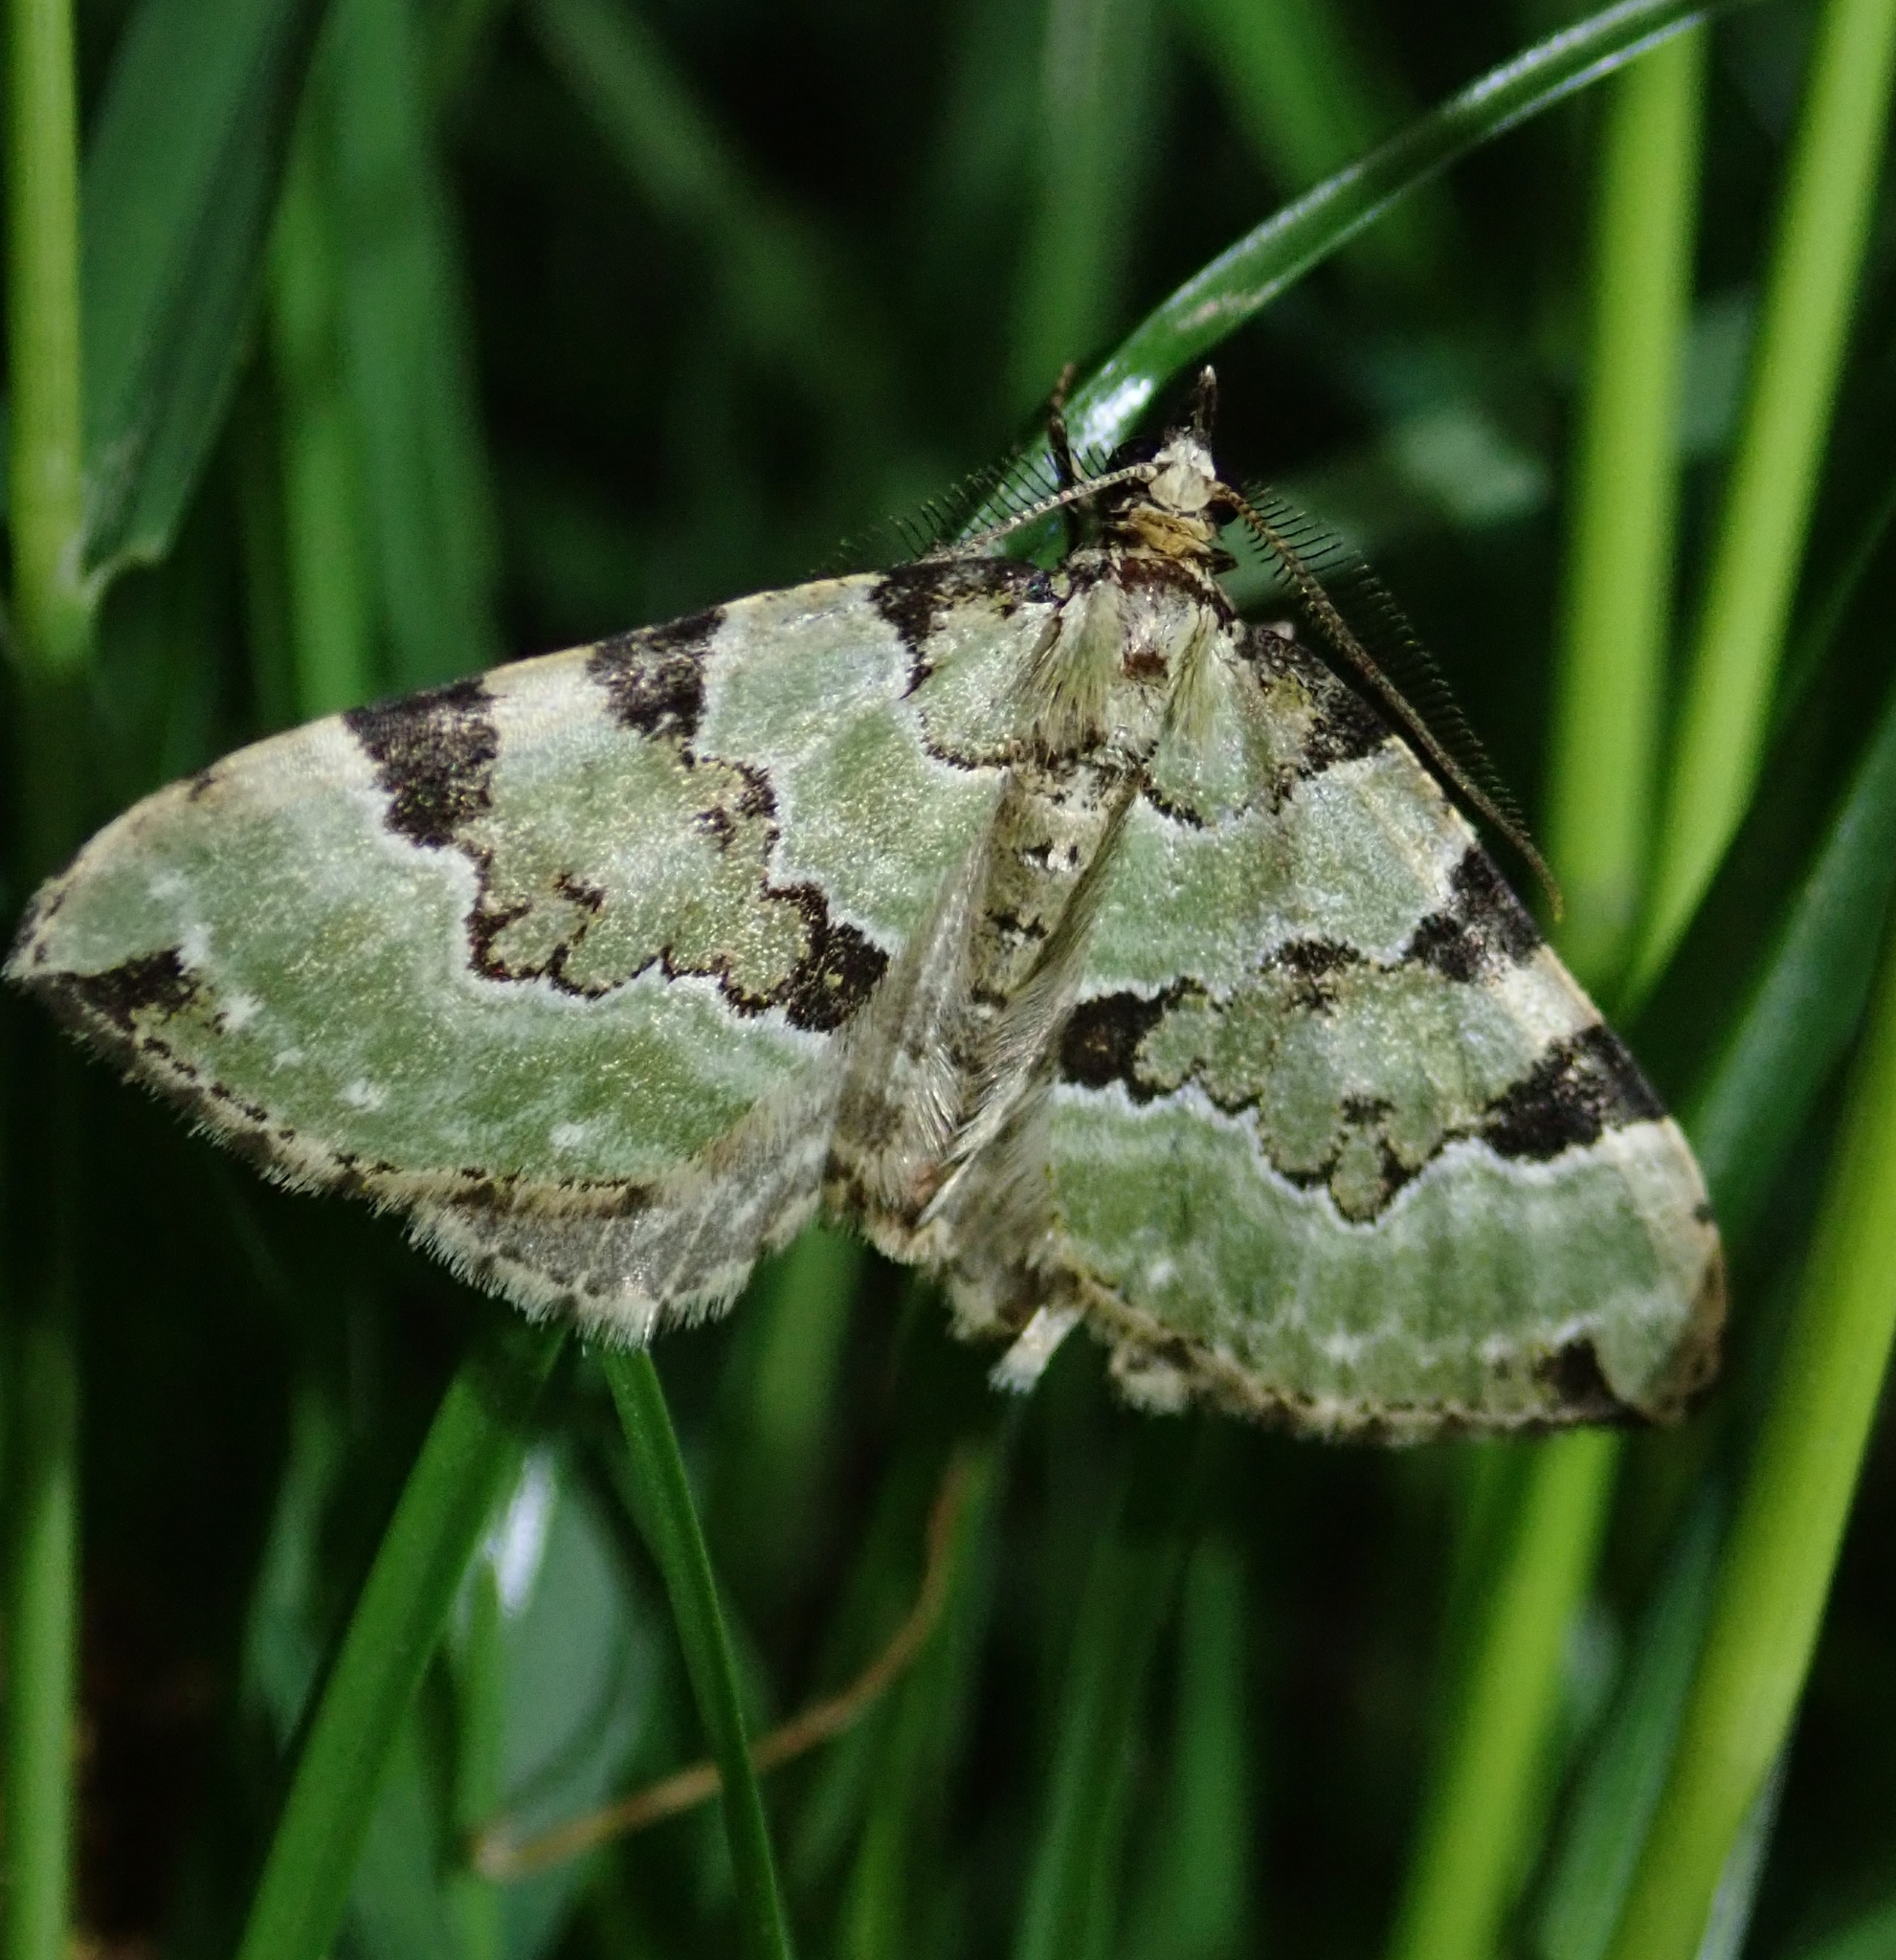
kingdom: Animalia
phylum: Arthropoda
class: Insecta
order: Lepidoptera
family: Geometridae
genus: Colostygia
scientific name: Colostygia pectinataria
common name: Green carpet
